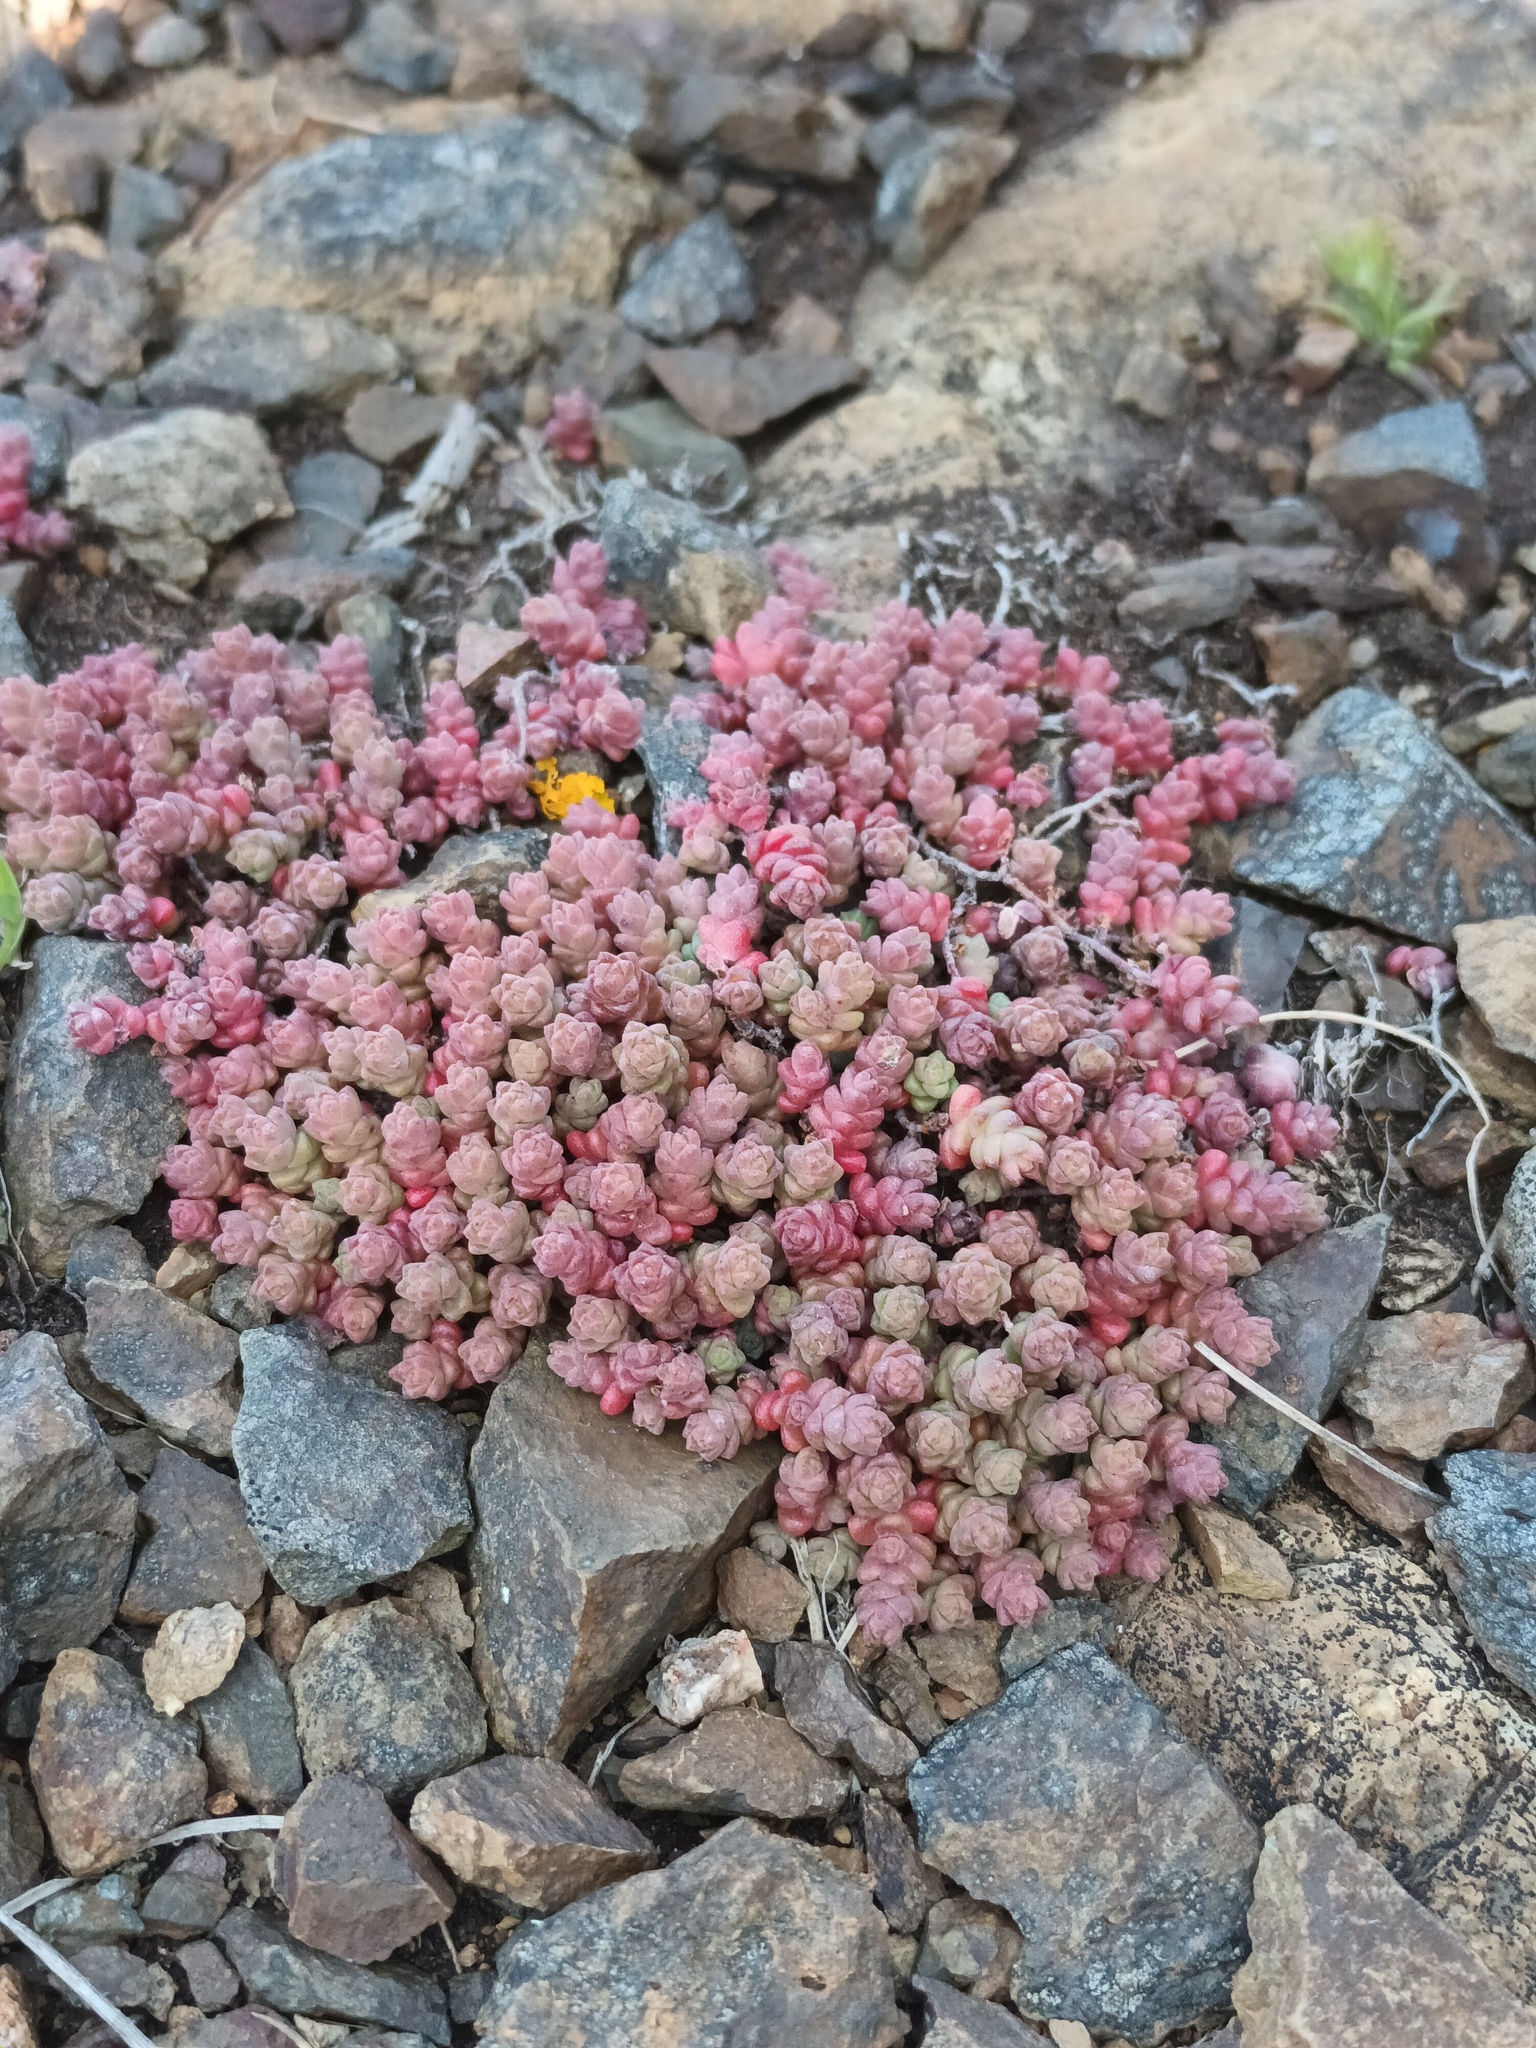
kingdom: Plantae
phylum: Tracheophyta
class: Magnoliopsida
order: Saxifragales
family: Crassulaceae
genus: Sedum
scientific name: Sedum anglicum
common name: English stonecrop
